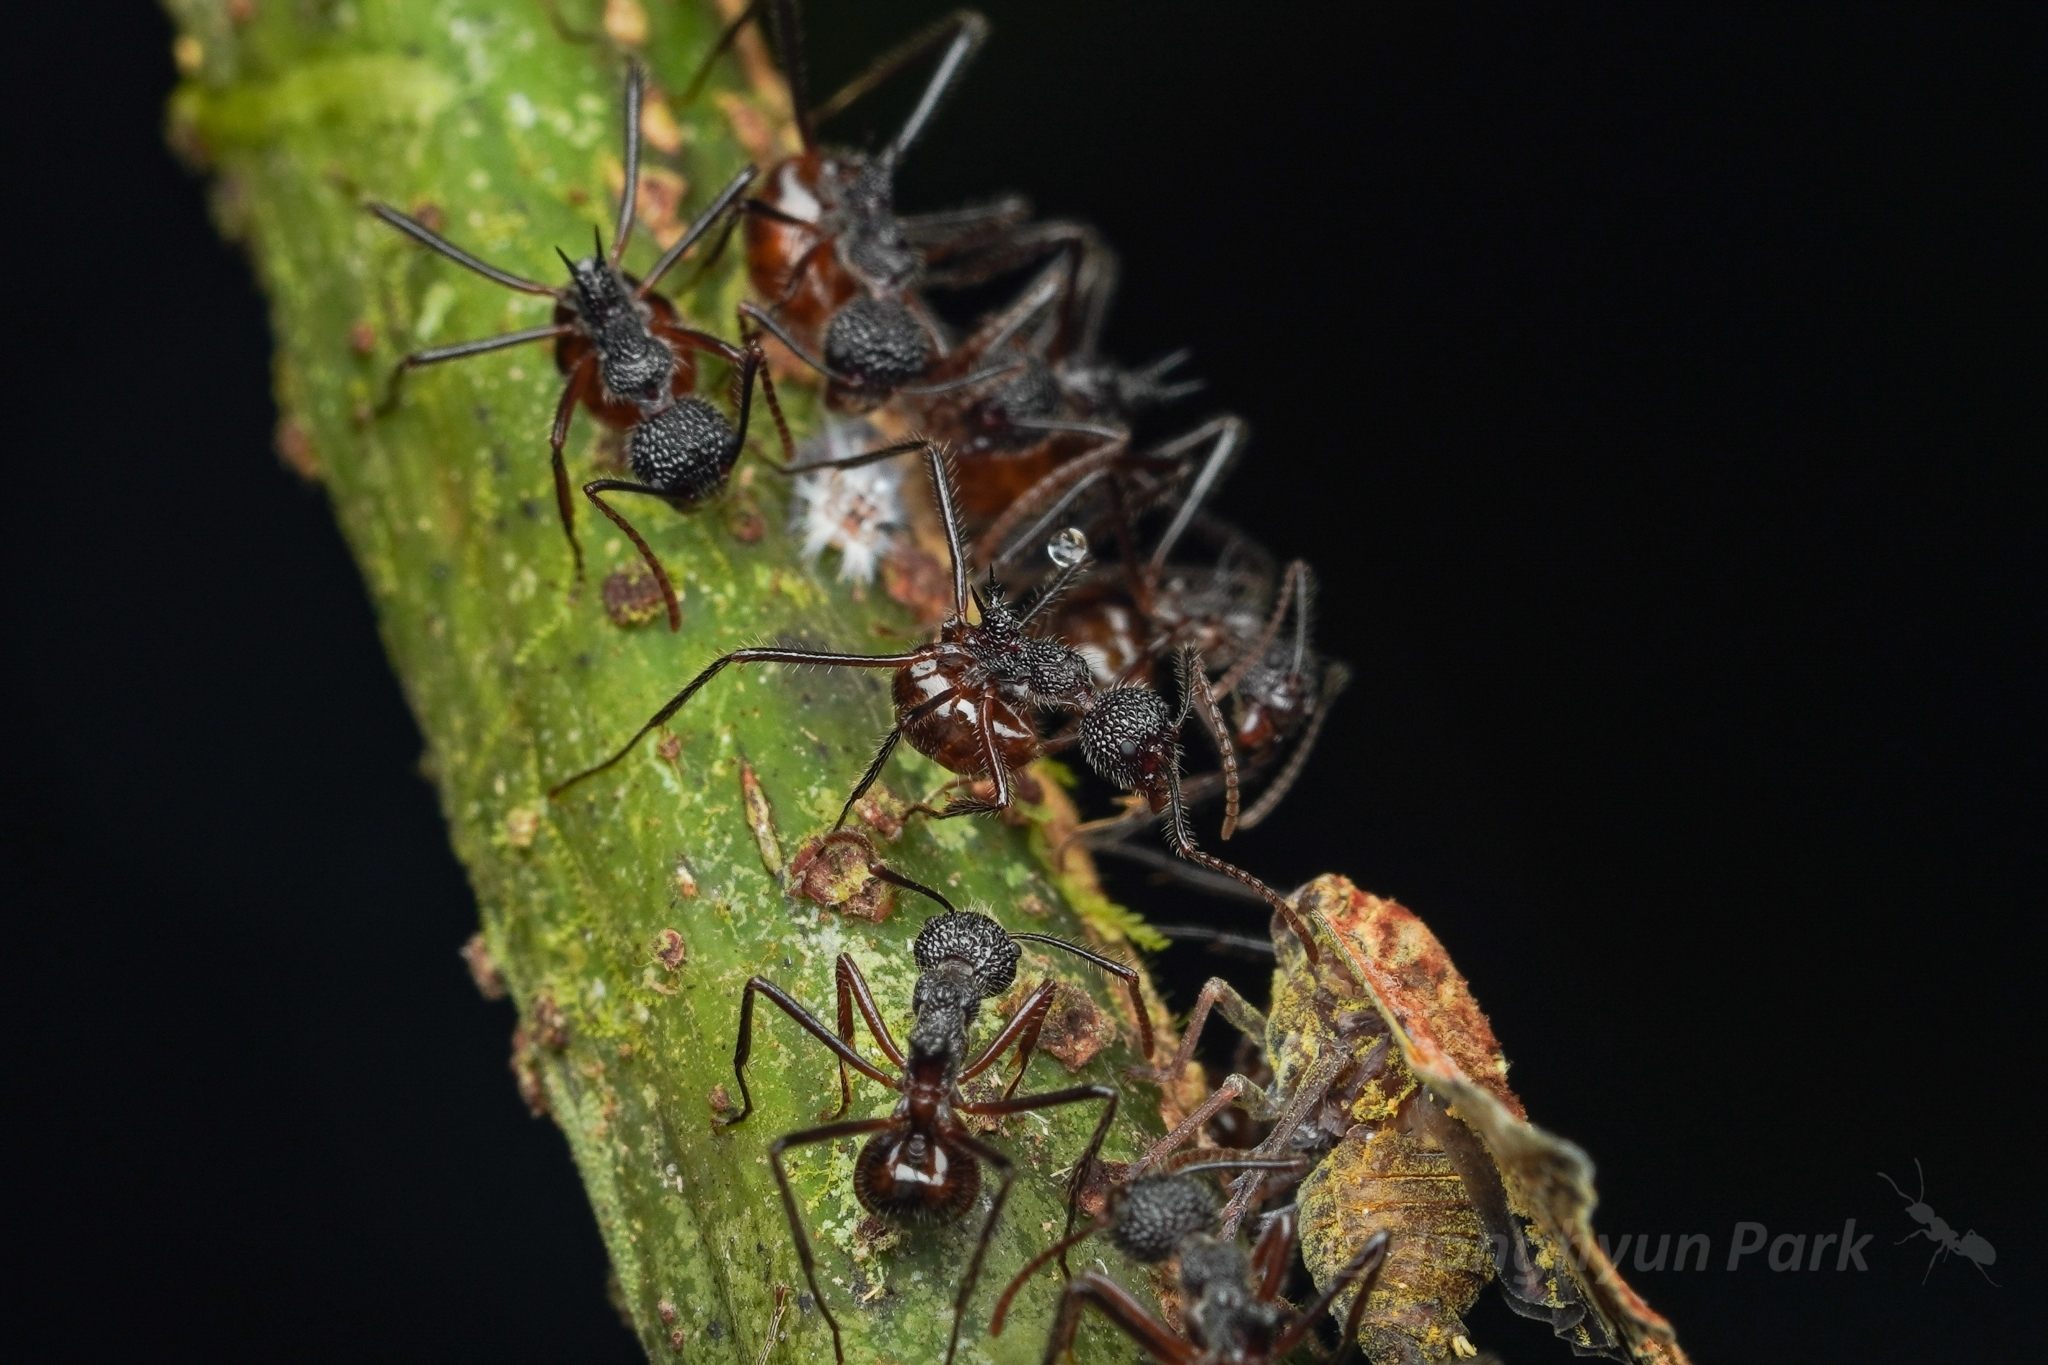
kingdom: Animalia
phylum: Arthropoda
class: Insecta
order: Hymenoptera
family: Formicidae
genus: Dolichoderus
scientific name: Dolichoderus indrapurensis
